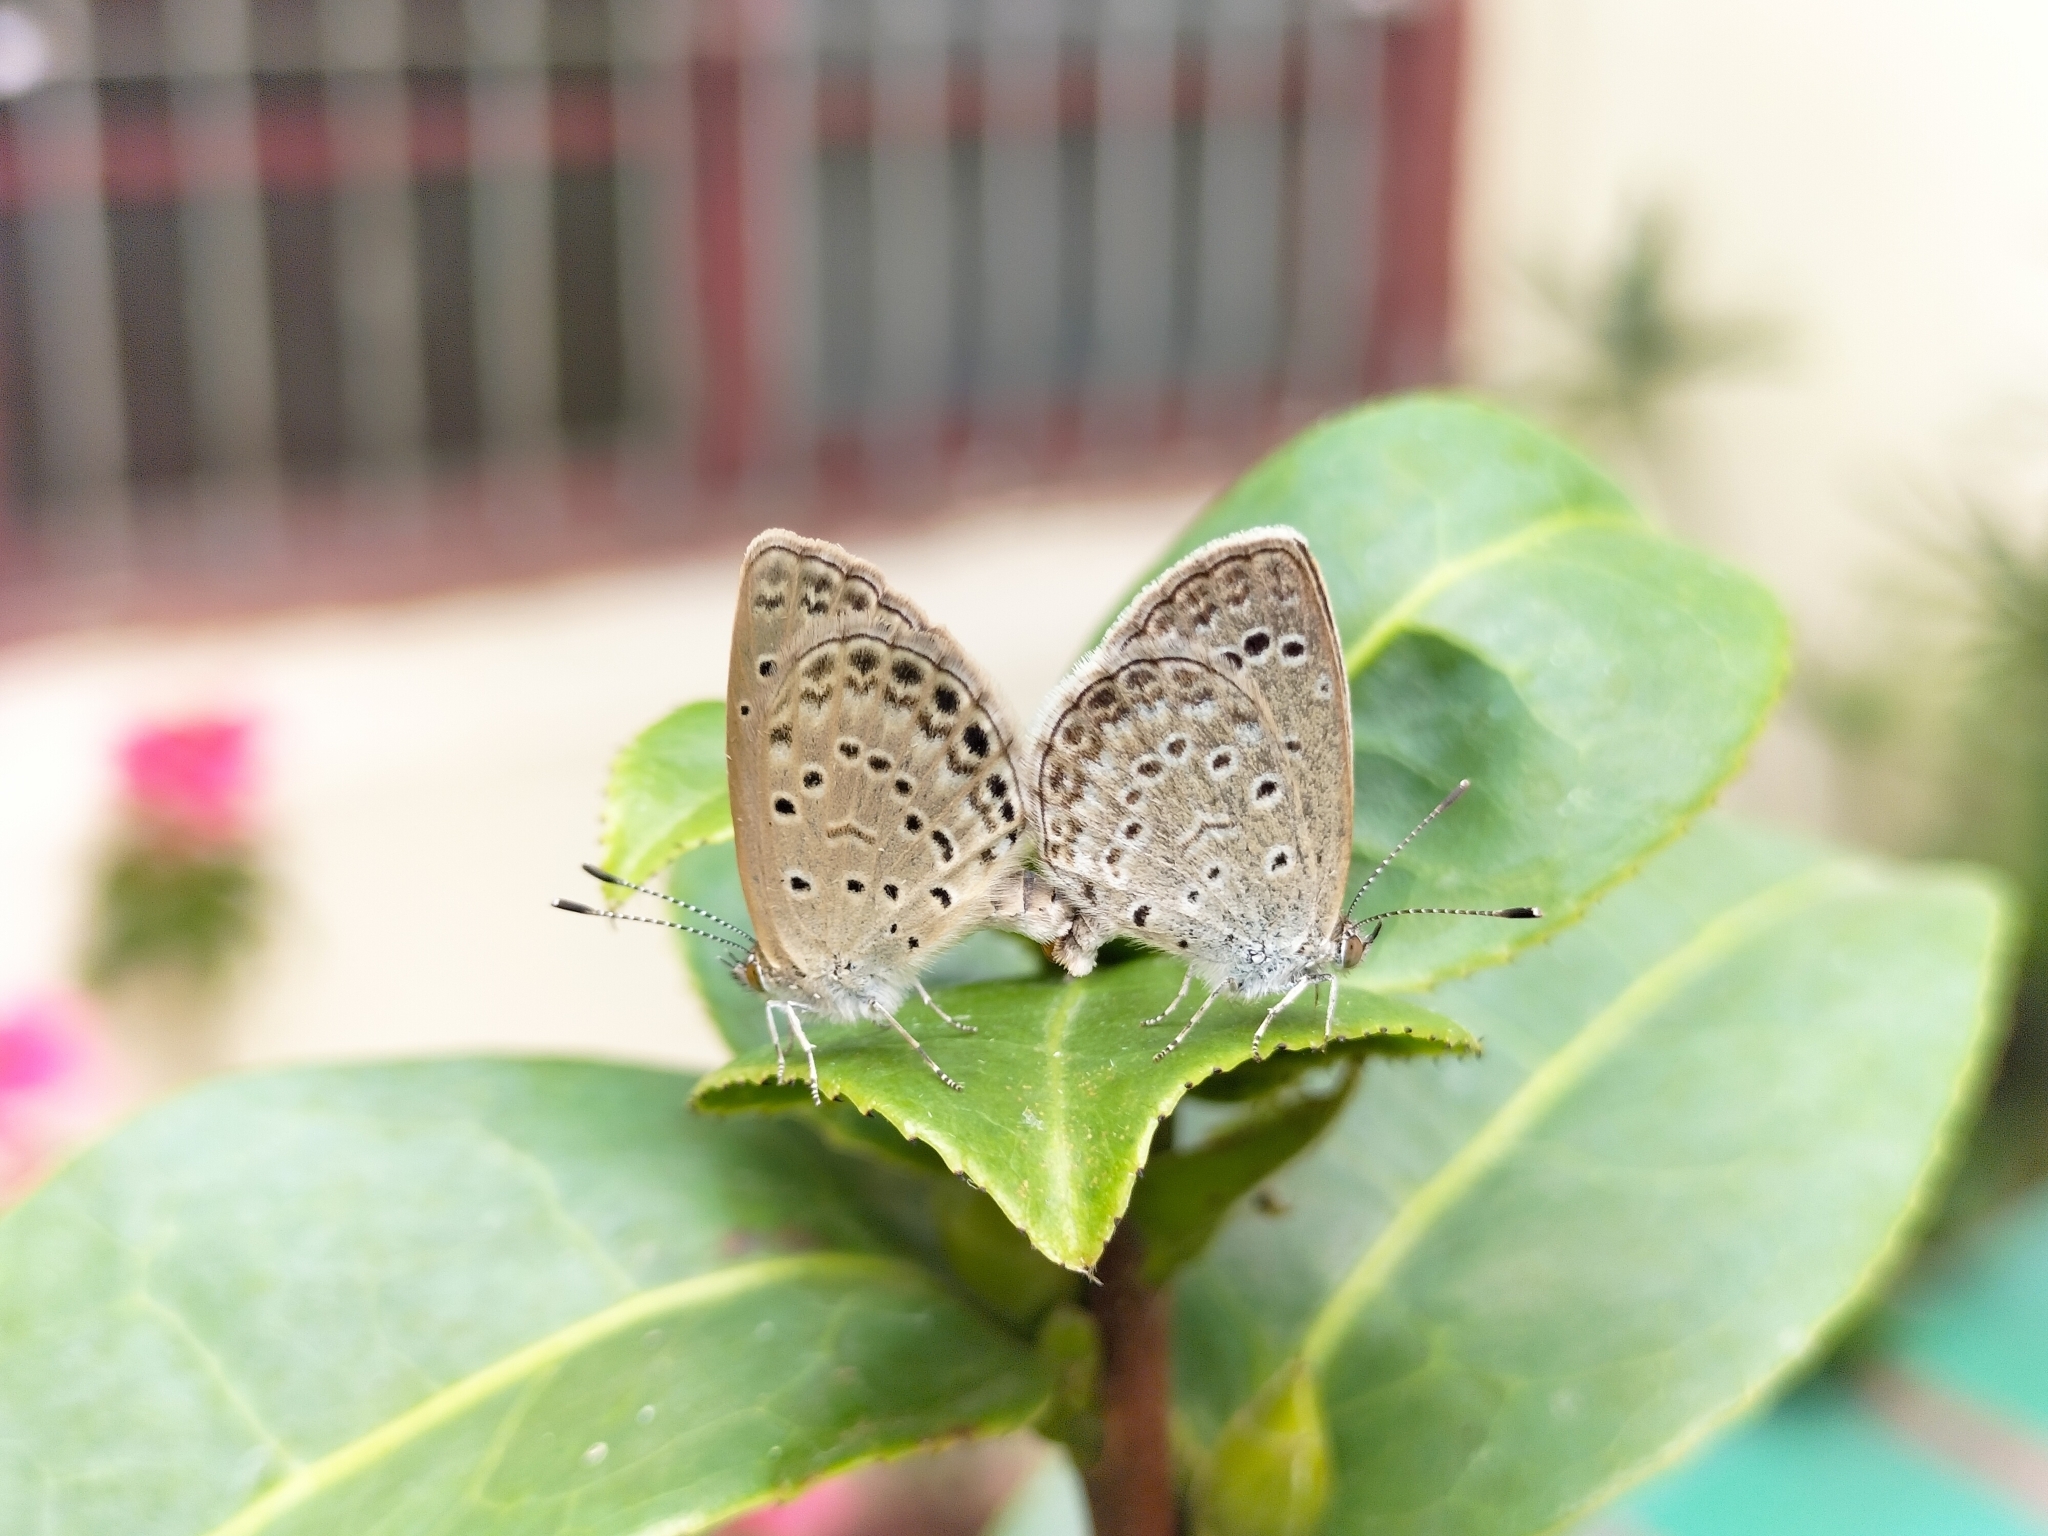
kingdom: Animalia
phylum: Arthropoda
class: Insecta
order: Lepidoptera
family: Lycaenidae
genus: Pseudozizeeria
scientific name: Pseudozizeeria maha
